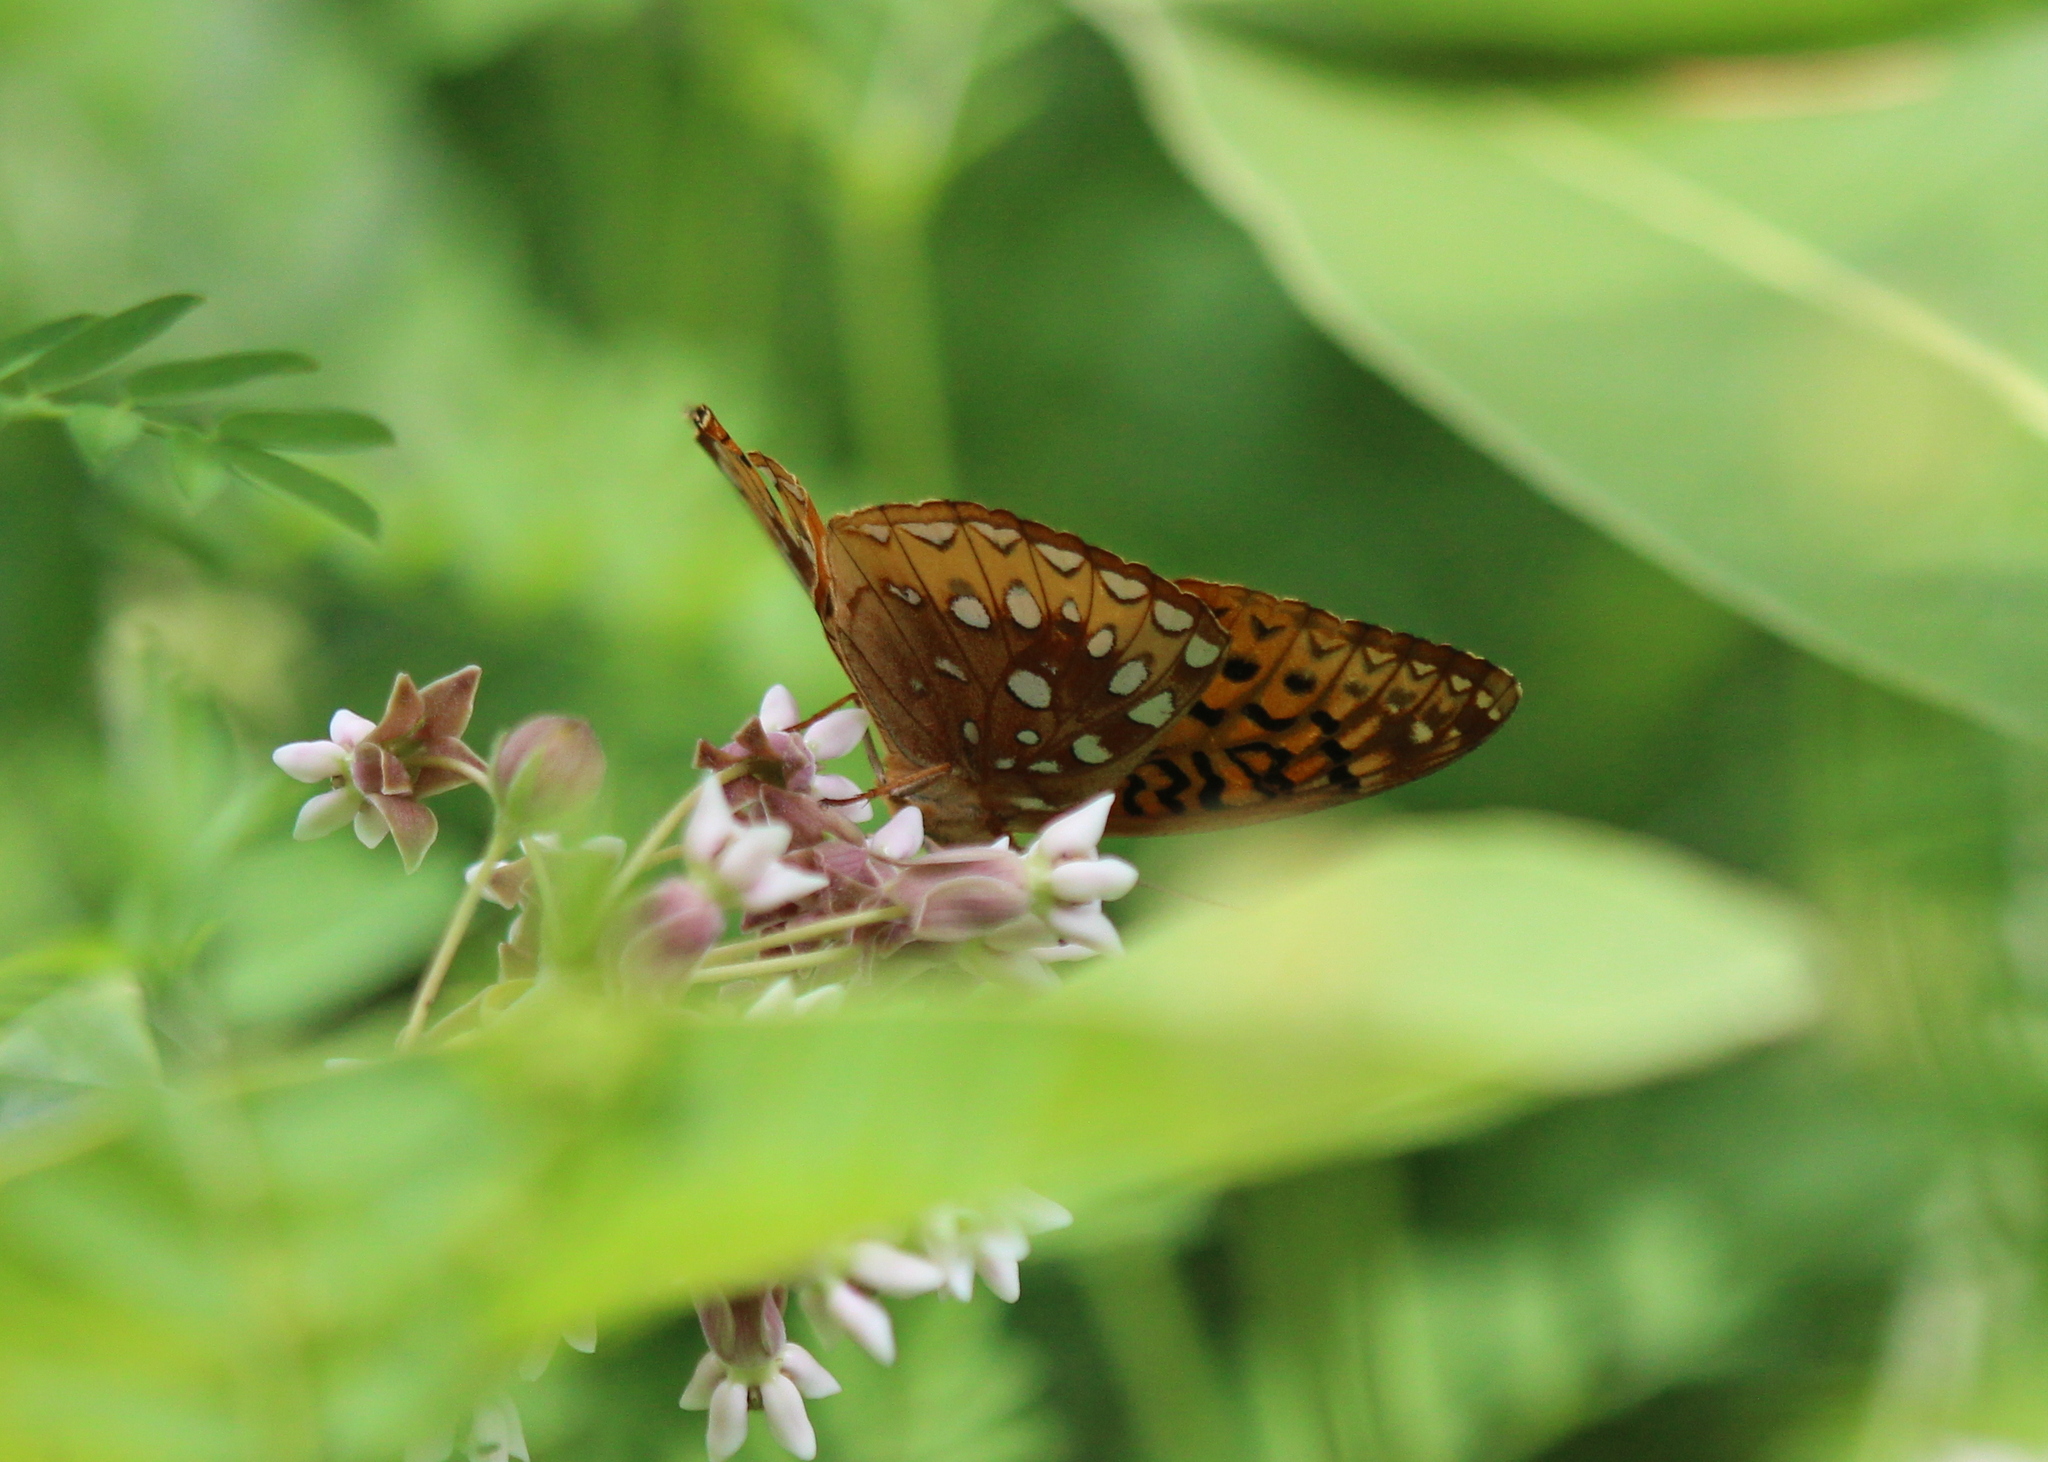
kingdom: Animalia
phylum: Arthropoda
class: Insecta
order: Lepidoptera
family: Nymphalidae
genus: Speyeria
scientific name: Speyeria cybele
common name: Great spangled fritillary
